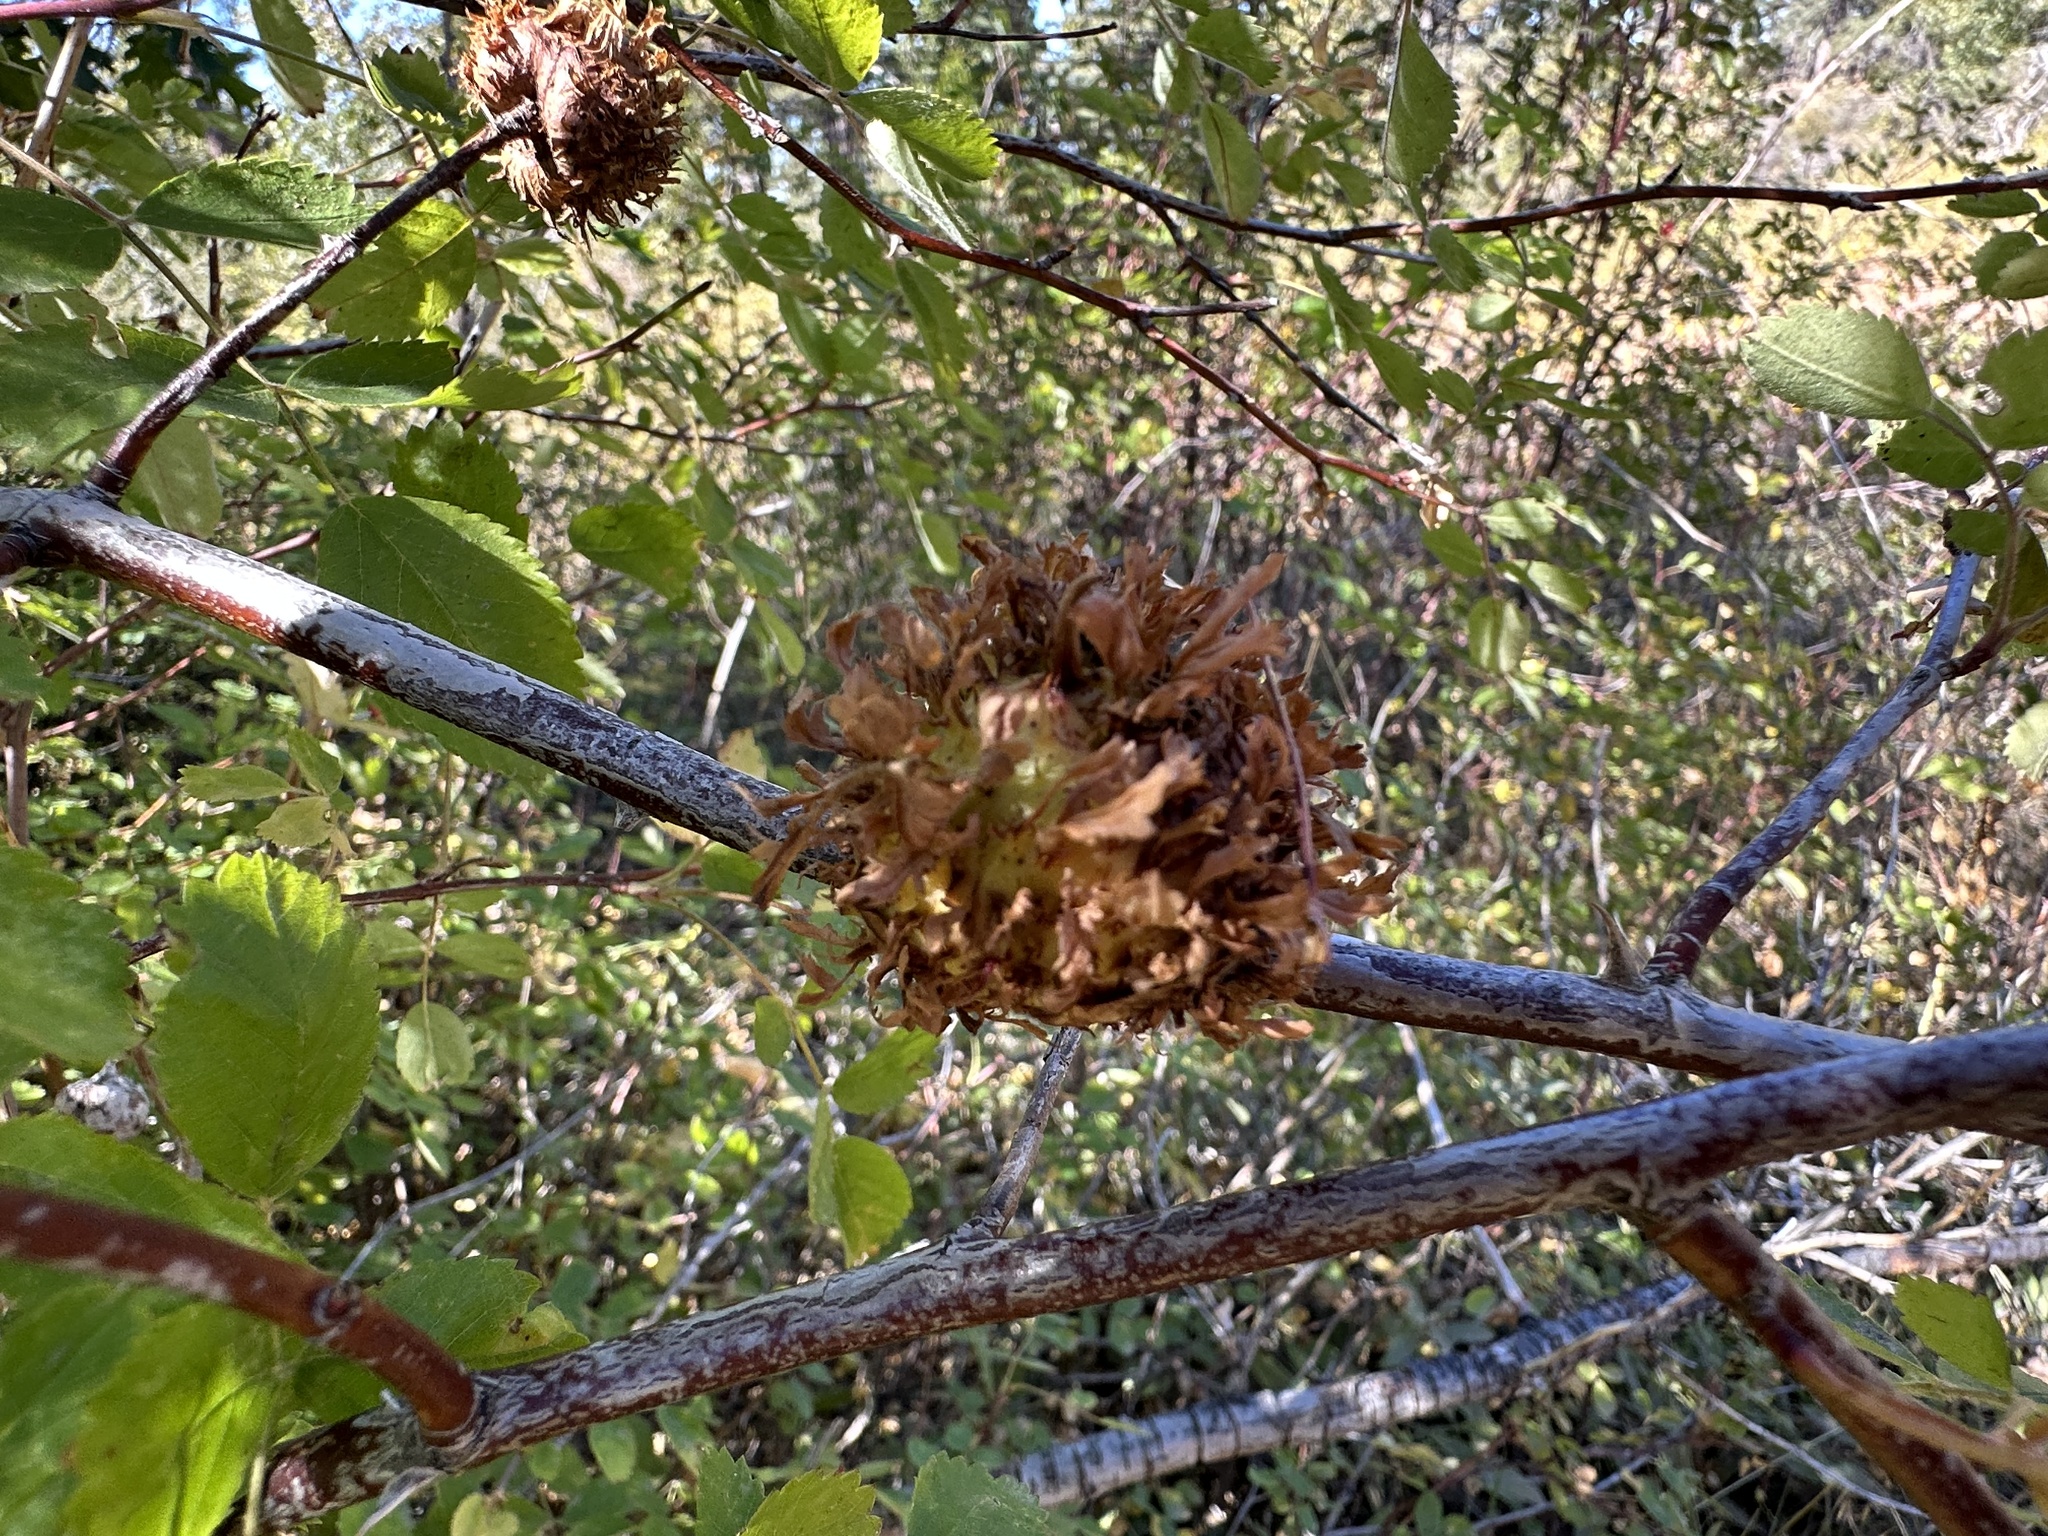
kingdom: Animalia
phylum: Arthropoda
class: Insecta
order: Hymenoptera
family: Cynipidae
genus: Diplolepis
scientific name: Diplolepis californica
